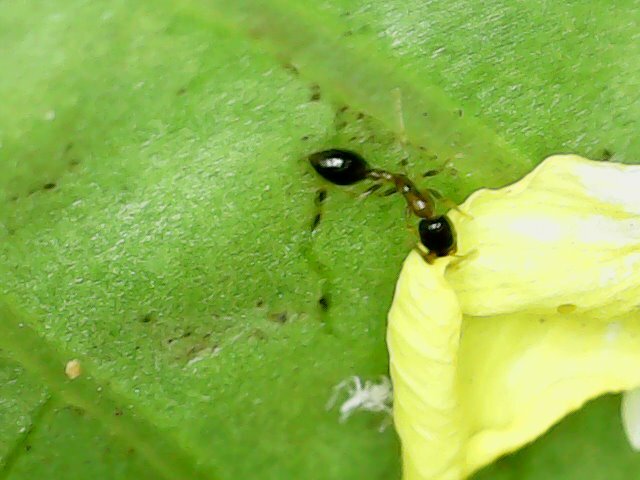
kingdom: Animalia
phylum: Arthropoda
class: Insecta
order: Hymenoptera
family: Formicidae
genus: Monomorium
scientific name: Monomorium floricola
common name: Bicolored trailing ant
